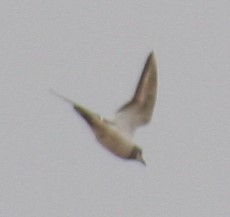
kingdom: Animalia
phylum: Chordata
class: Aves
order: Charadriiformes
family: Charadriidae
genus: Charadrius
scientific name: Charadrius vociferus
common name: Killdeer
